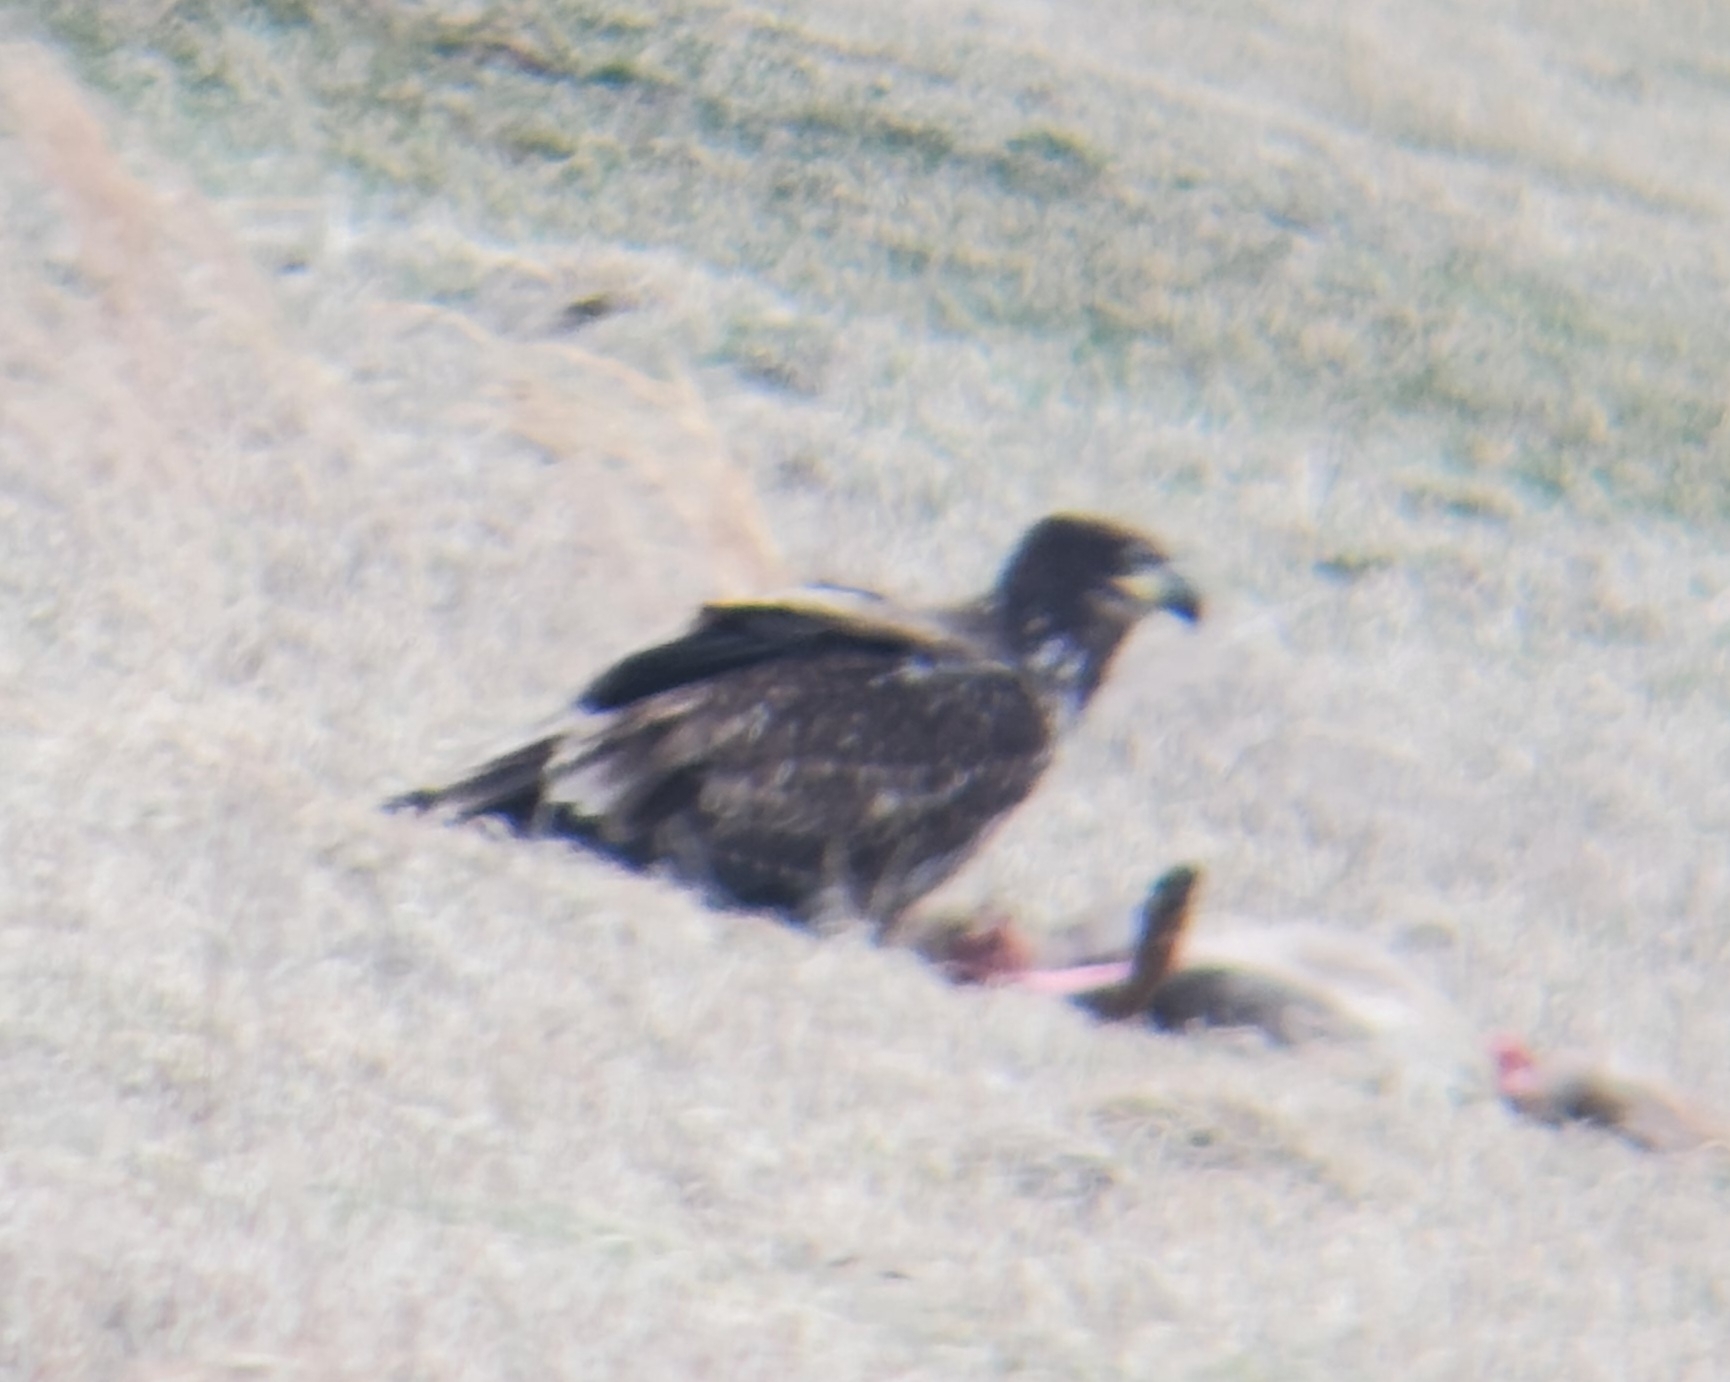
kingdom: Animalia
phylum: Chordata
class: Mammalia
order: Artiodactyla
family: Cervidae
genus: Odocoileus
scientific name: Odocoileus virginianus
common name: White-tailed deer
